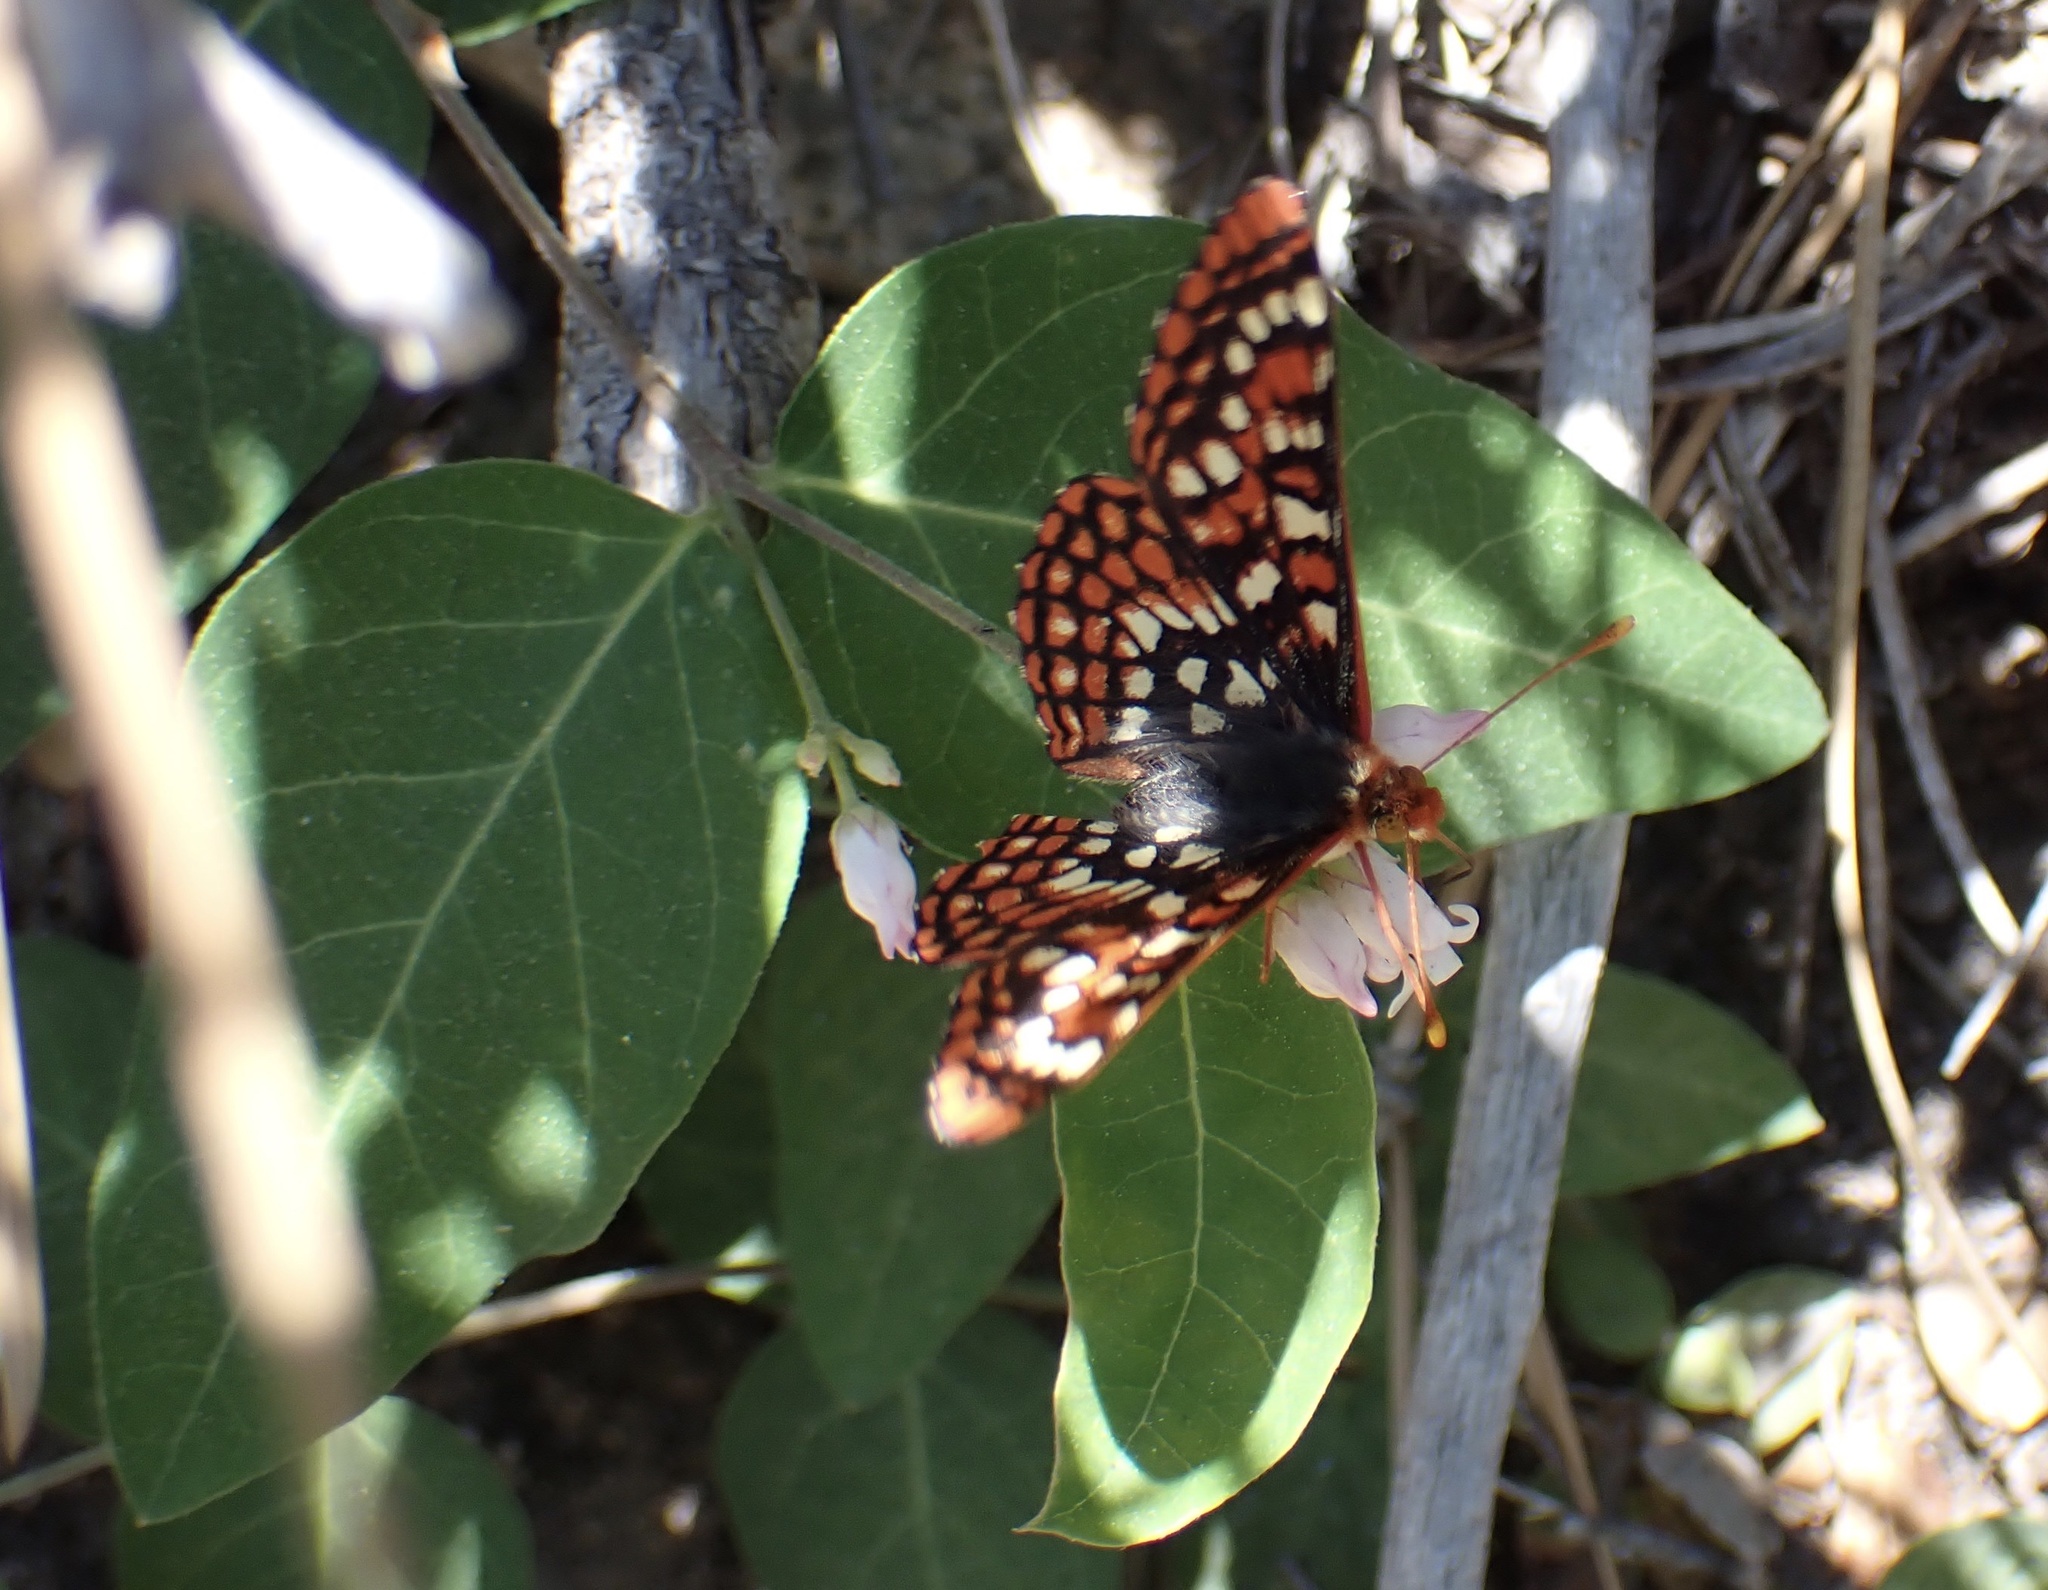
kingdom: Animalia
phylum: Arthropoda
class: Insecta
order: Lepidoptera
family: Nymphalidae
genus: Occidryas
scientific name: Occidryas chalcedona
